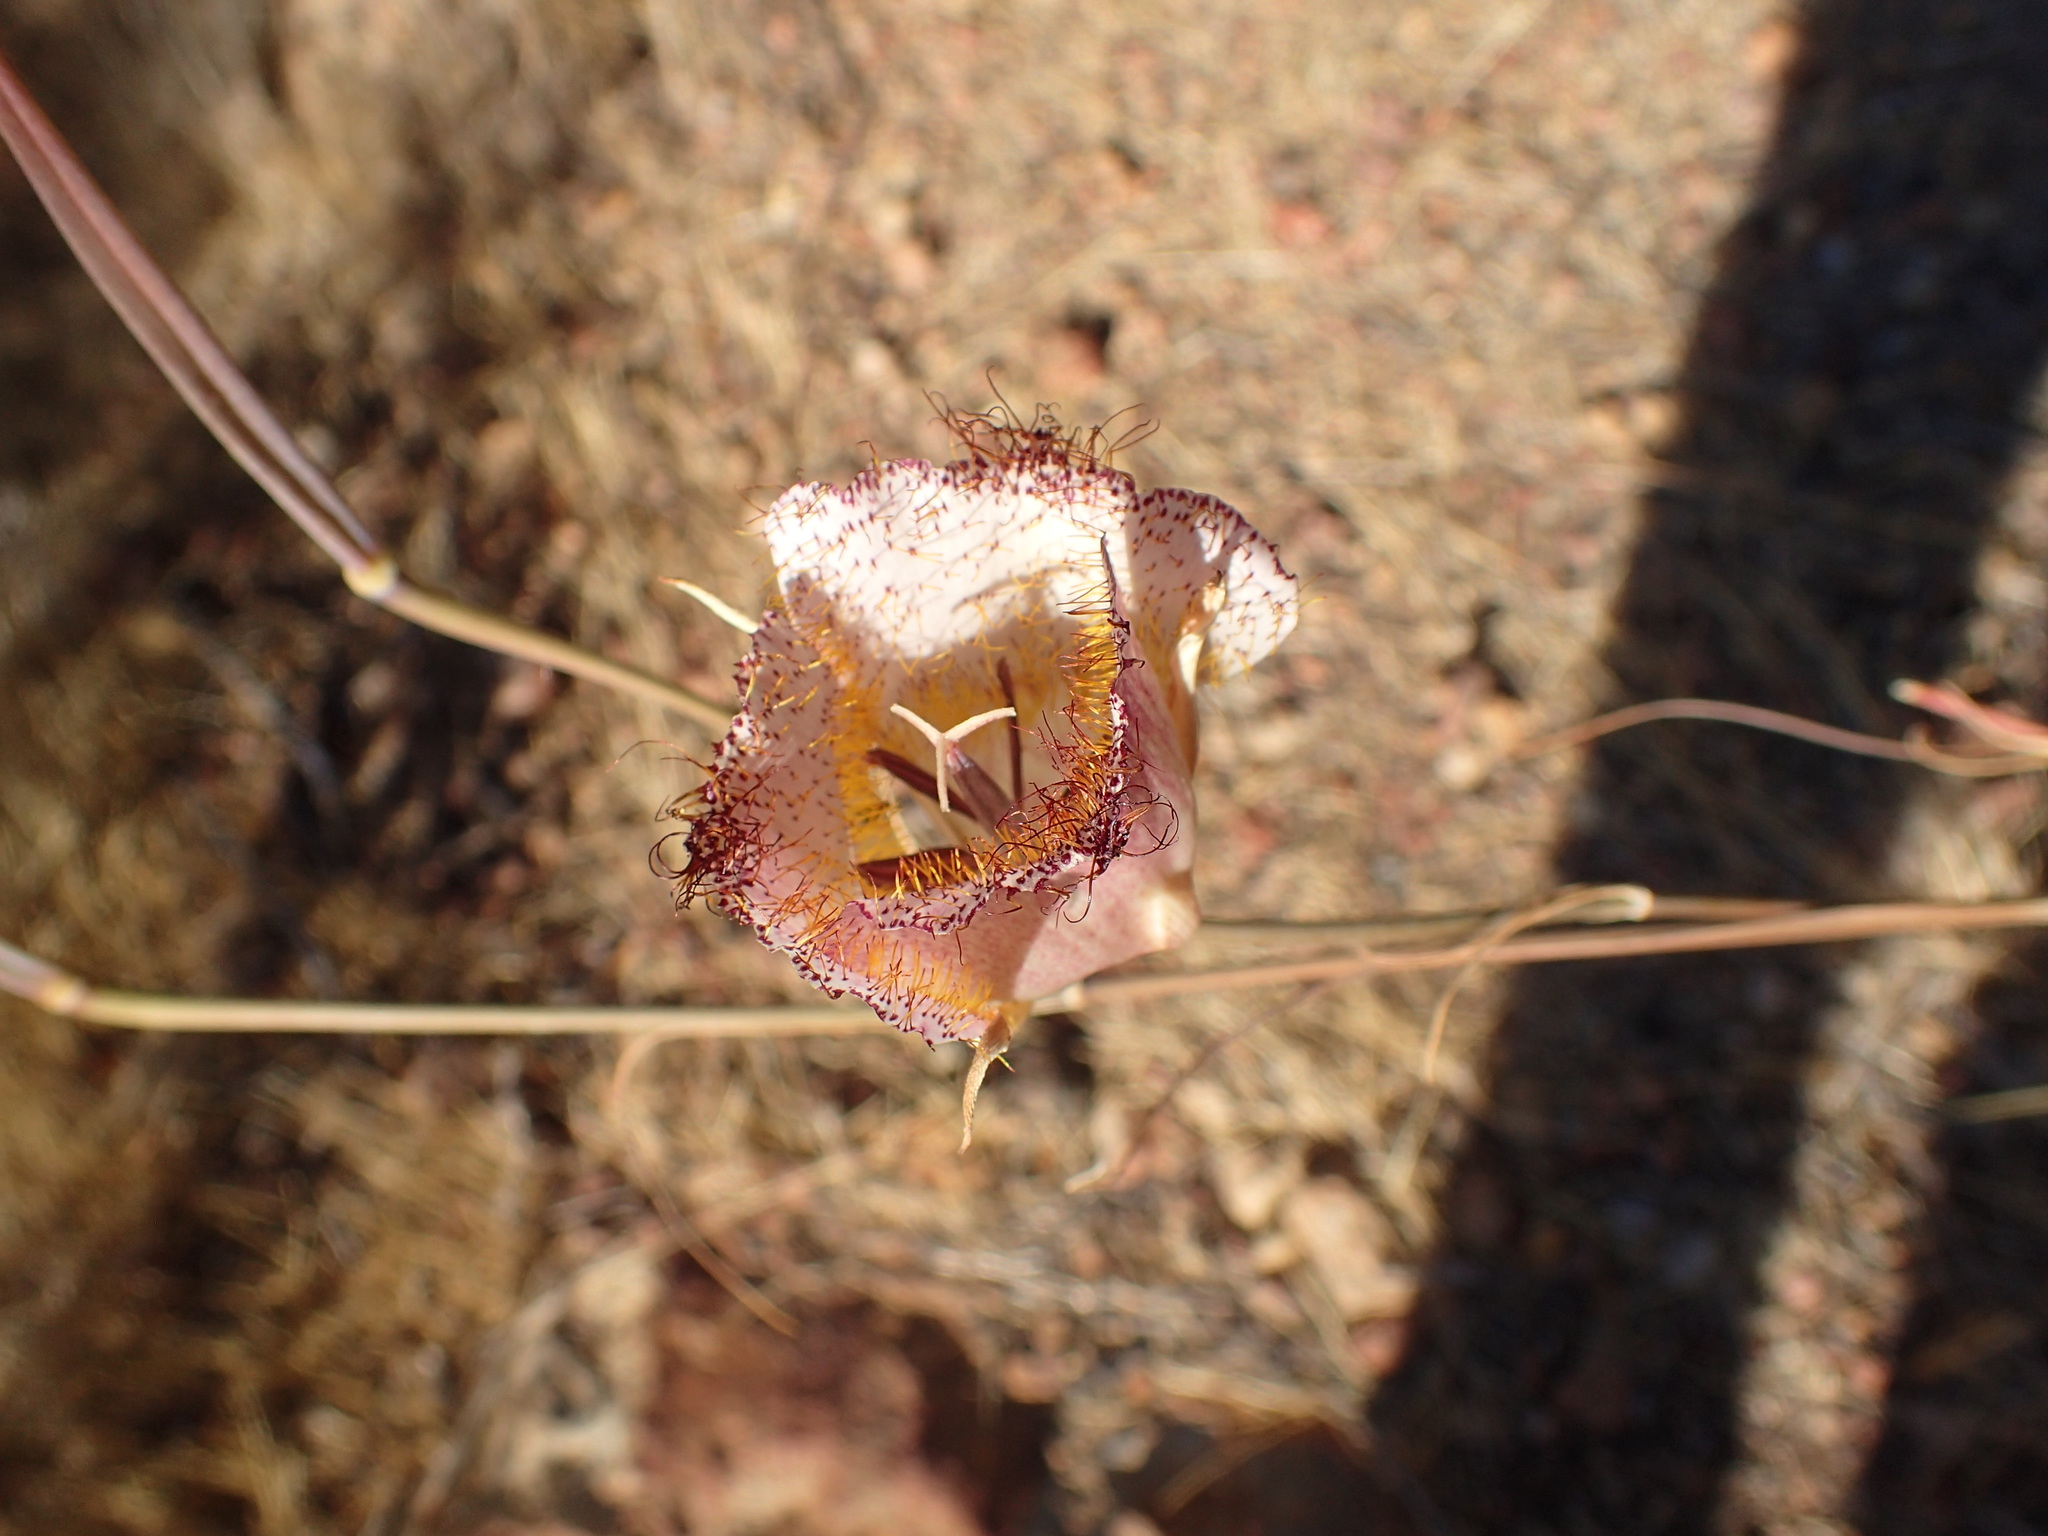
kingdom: Plantae
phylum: Tracheophyta
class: Liliopsida
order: Liliales
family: Liliaceae
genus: Calochortus
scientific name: Calochortus fimbriatus
